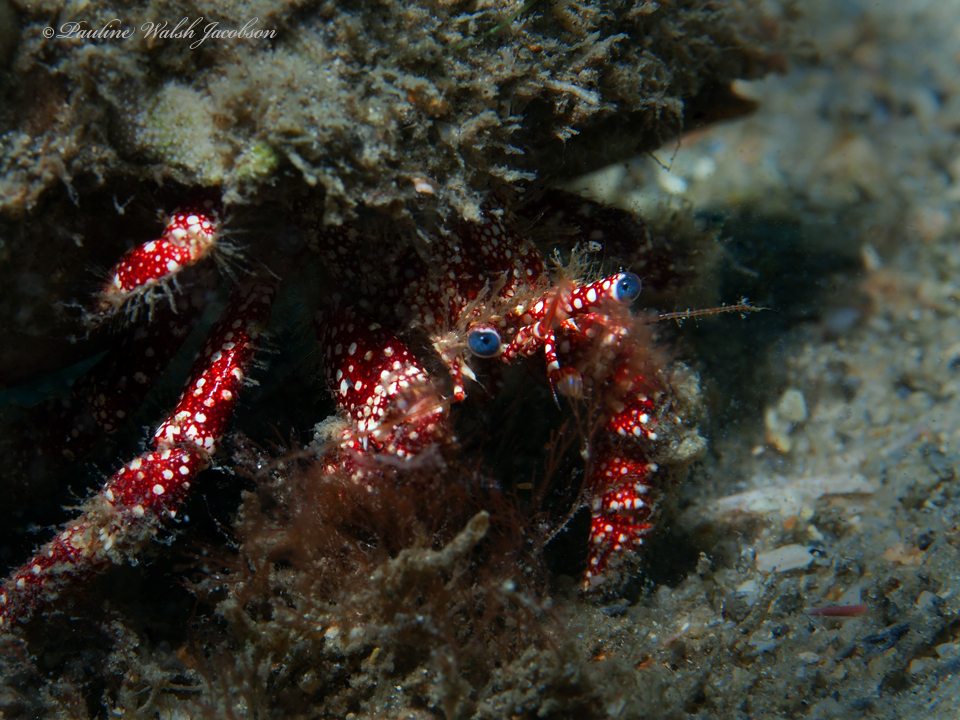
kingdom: Animalia
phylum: Arthropoda
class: Malacostraca
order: Decapoda
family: Diogenidae
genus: Paguristes
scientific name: Paguristes puncticeps
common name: White speckled hermit
